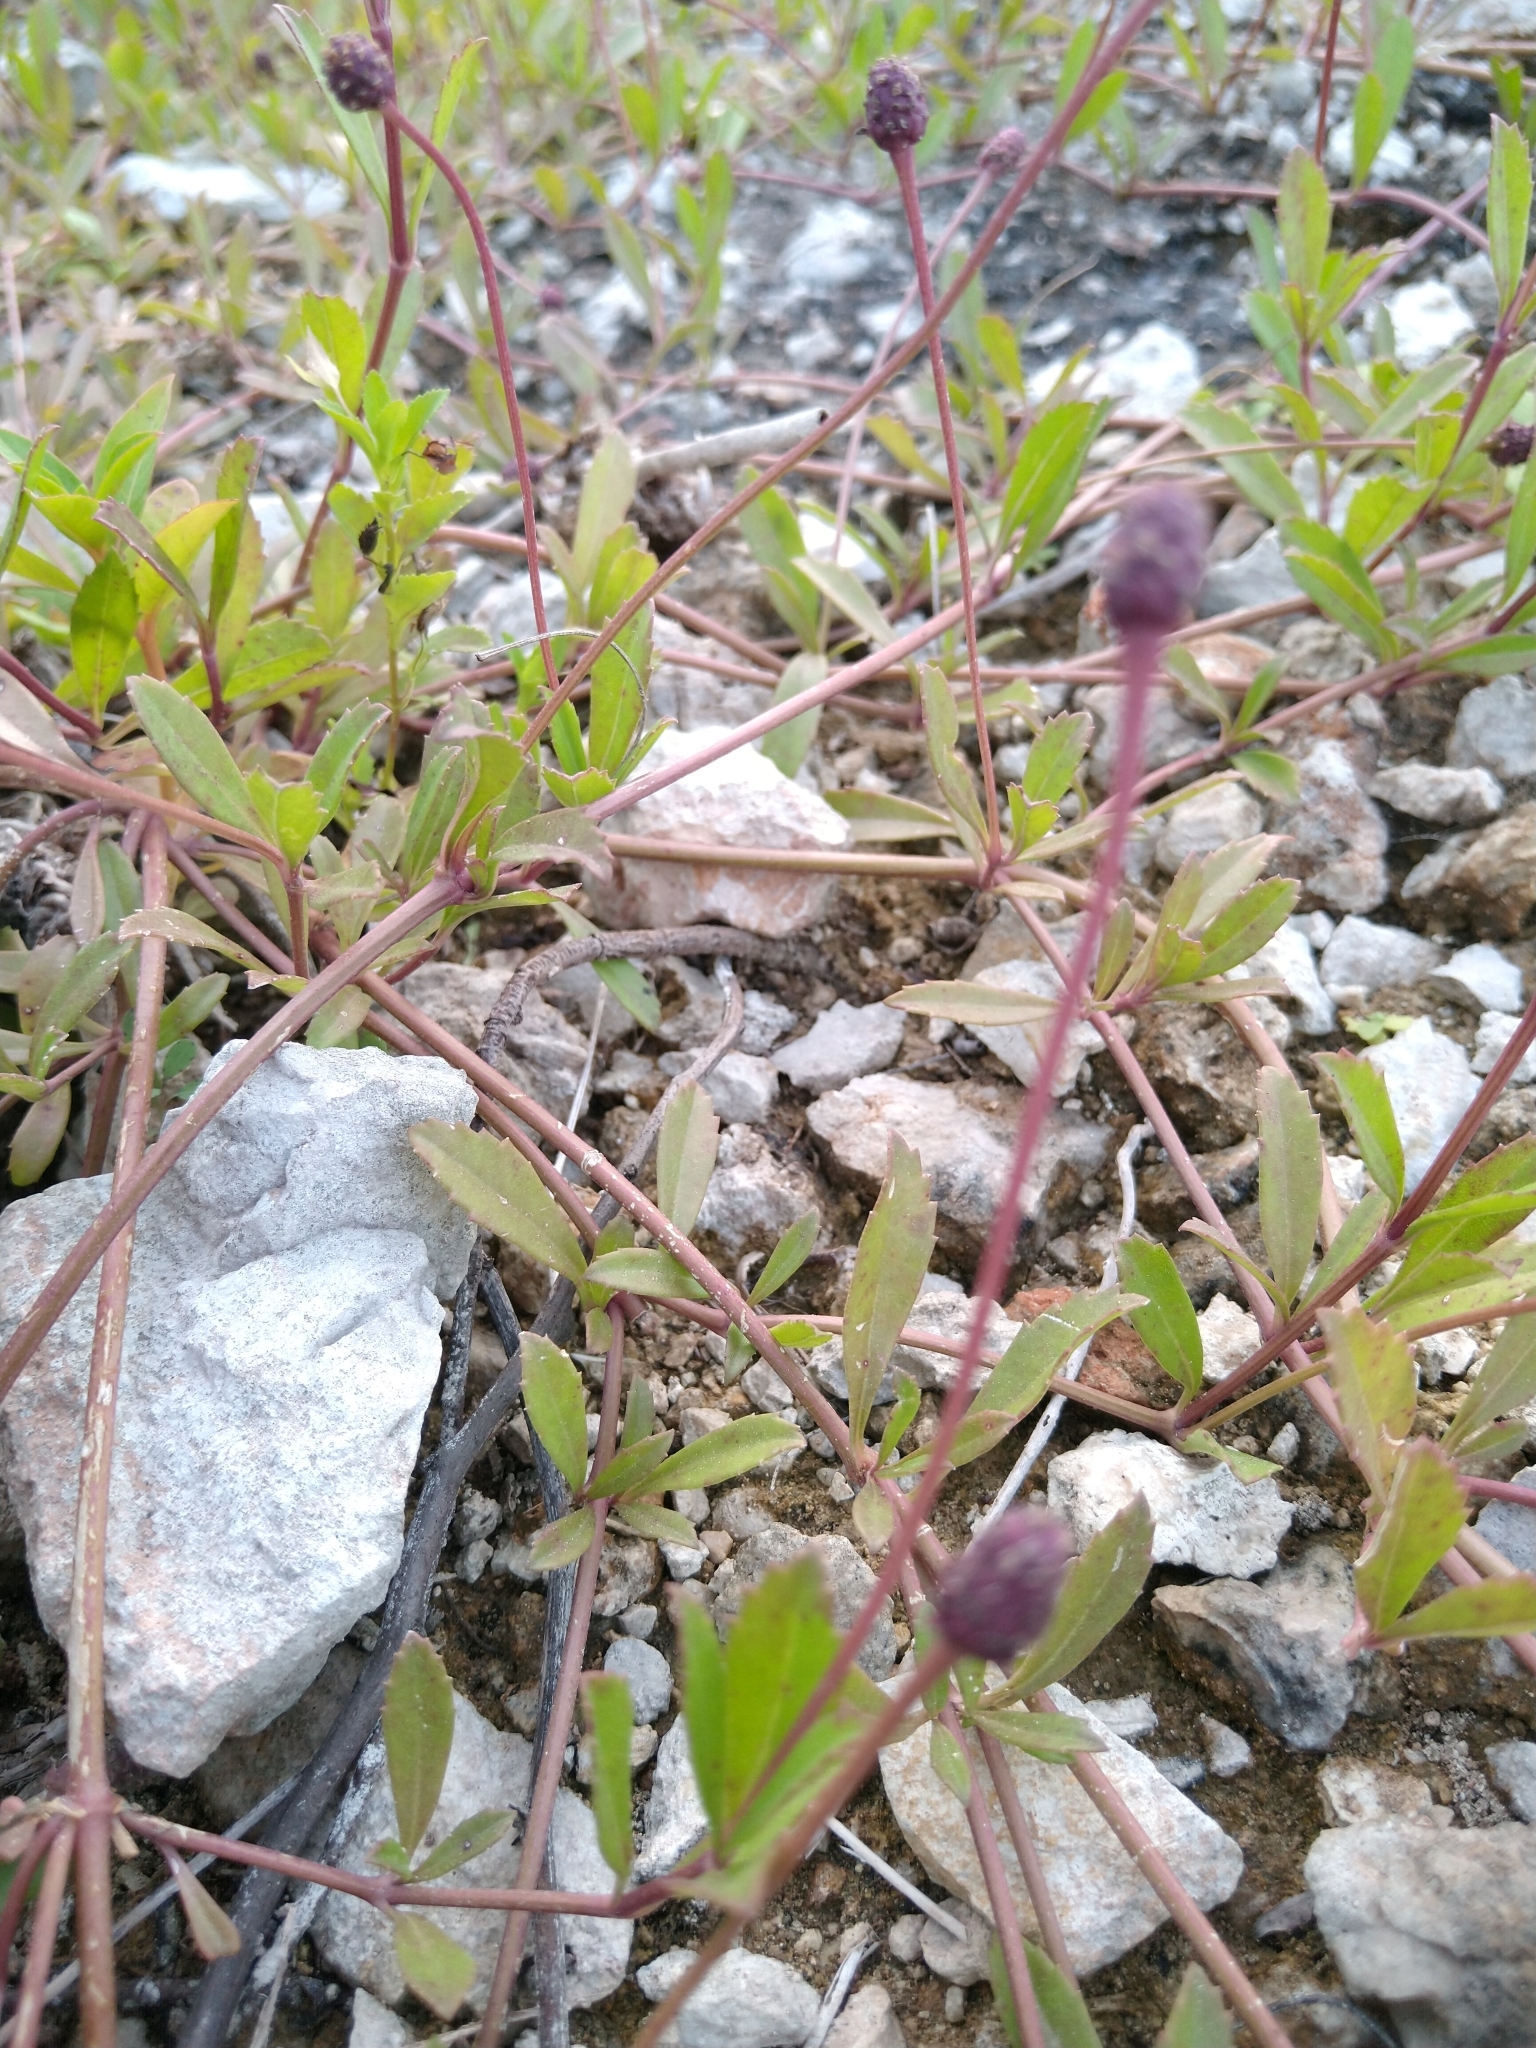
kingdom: Plantae
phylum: Tracheophyta
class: Magnoliopsida
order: Lamiales
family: Verbenaceae
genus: Phyla
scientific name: Phyla nodiflora
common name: Frogfruit
